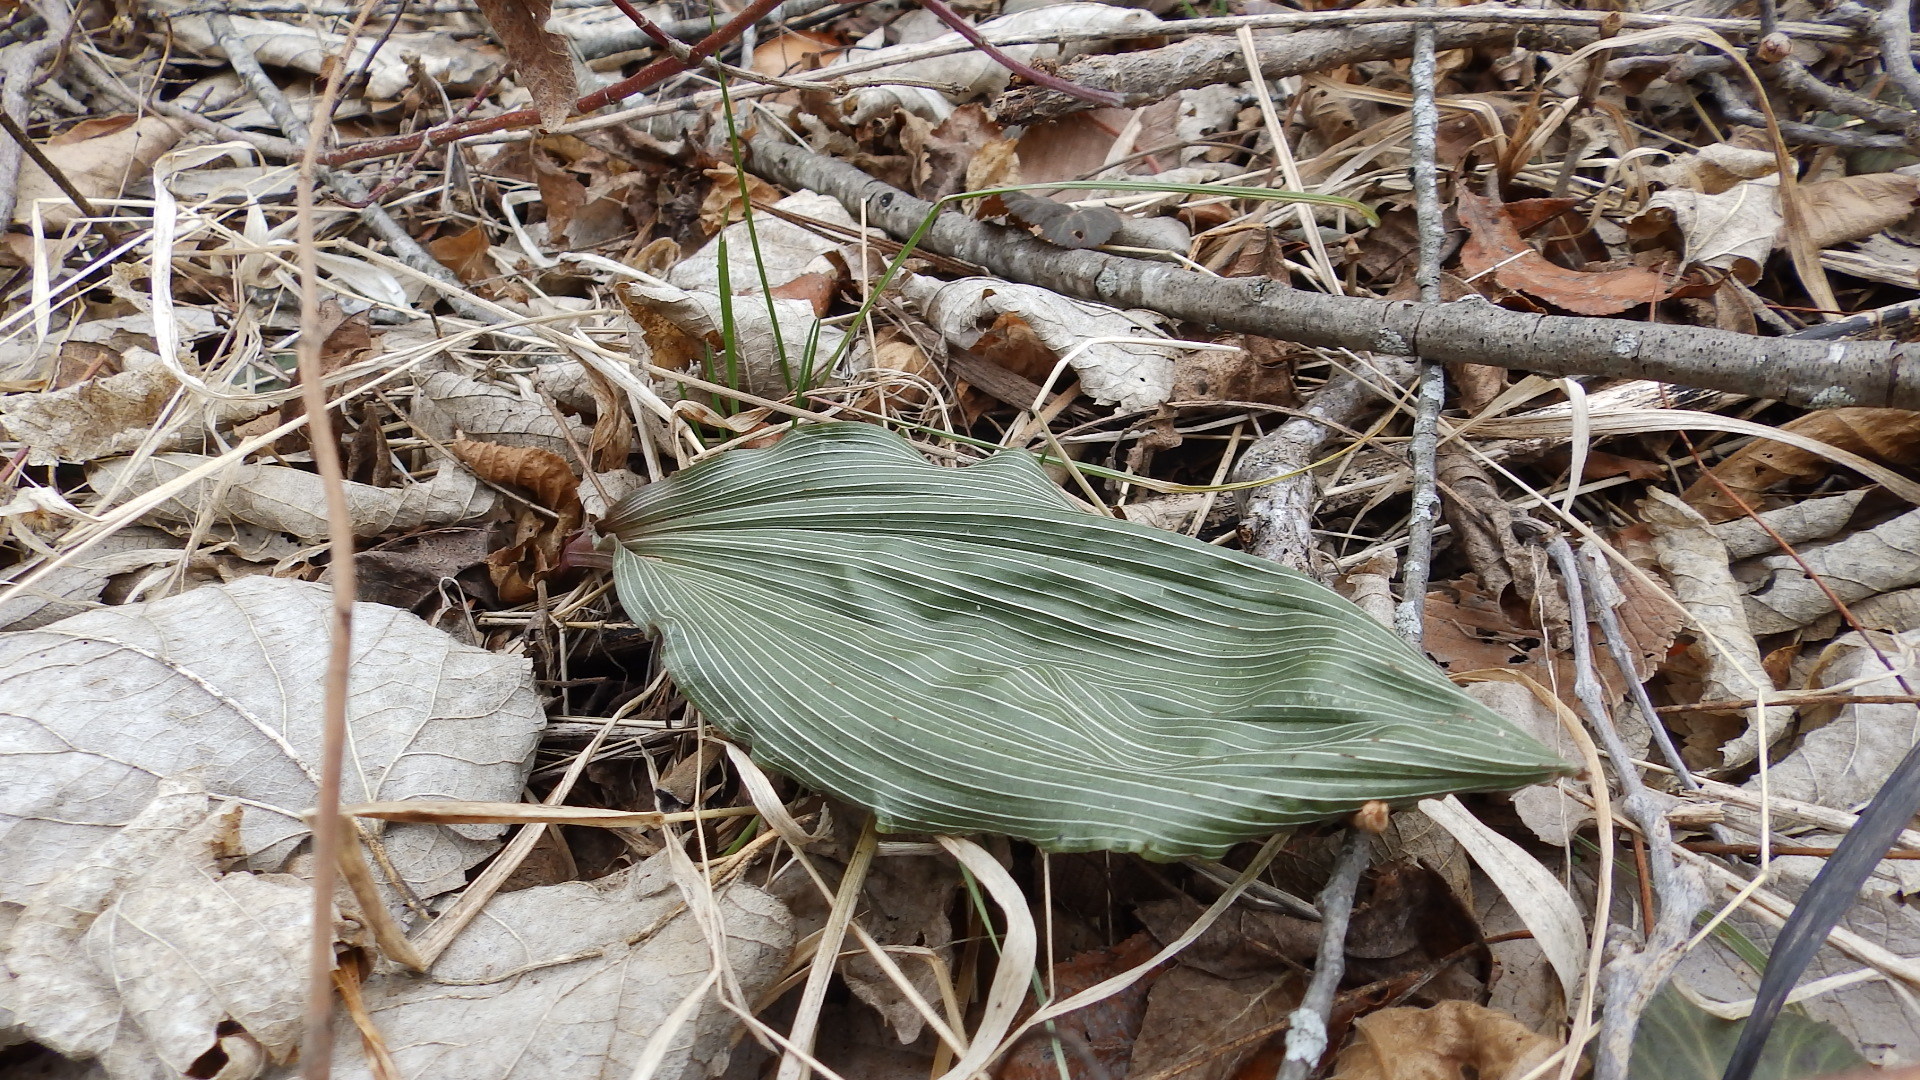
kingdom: Plantae
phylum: Tracheophyta
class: Liliopsida
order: Asparagales
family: Orchidaceae
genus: Aplectrum
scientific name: Aplectrum hyemale
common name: Adam-and-eve
